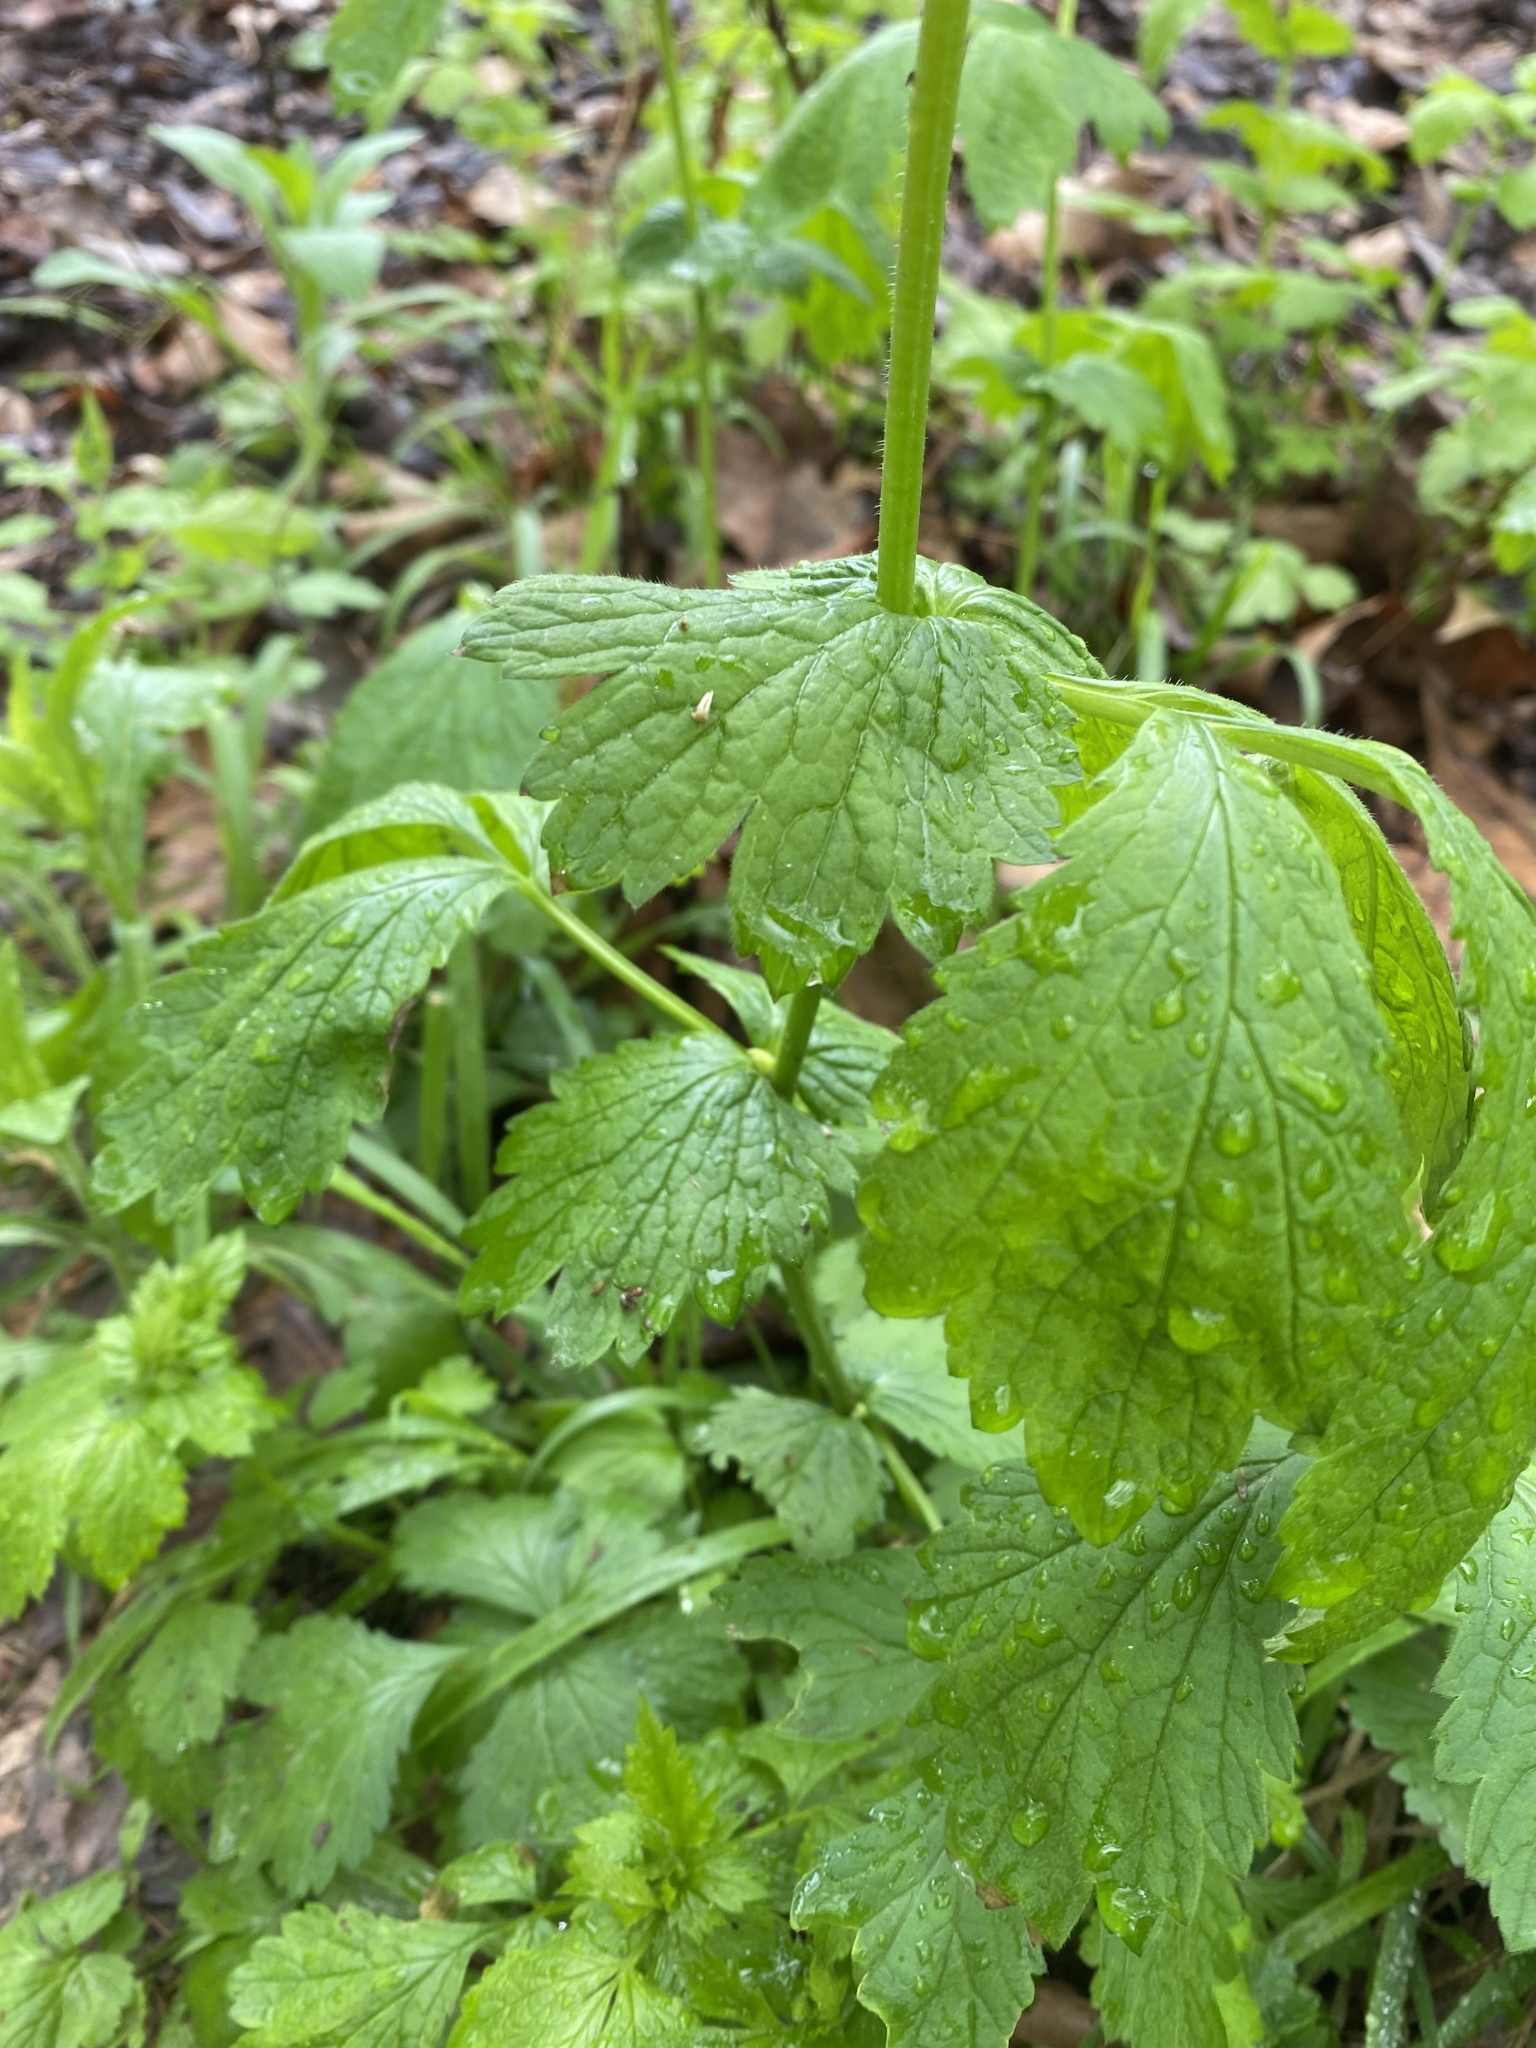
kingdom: Plantae
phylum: Tracheophyta
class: Magnoliopsida
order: Rosales
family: Rosaceae
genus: Geum
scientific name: Geum urbanum
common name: Wood avens
